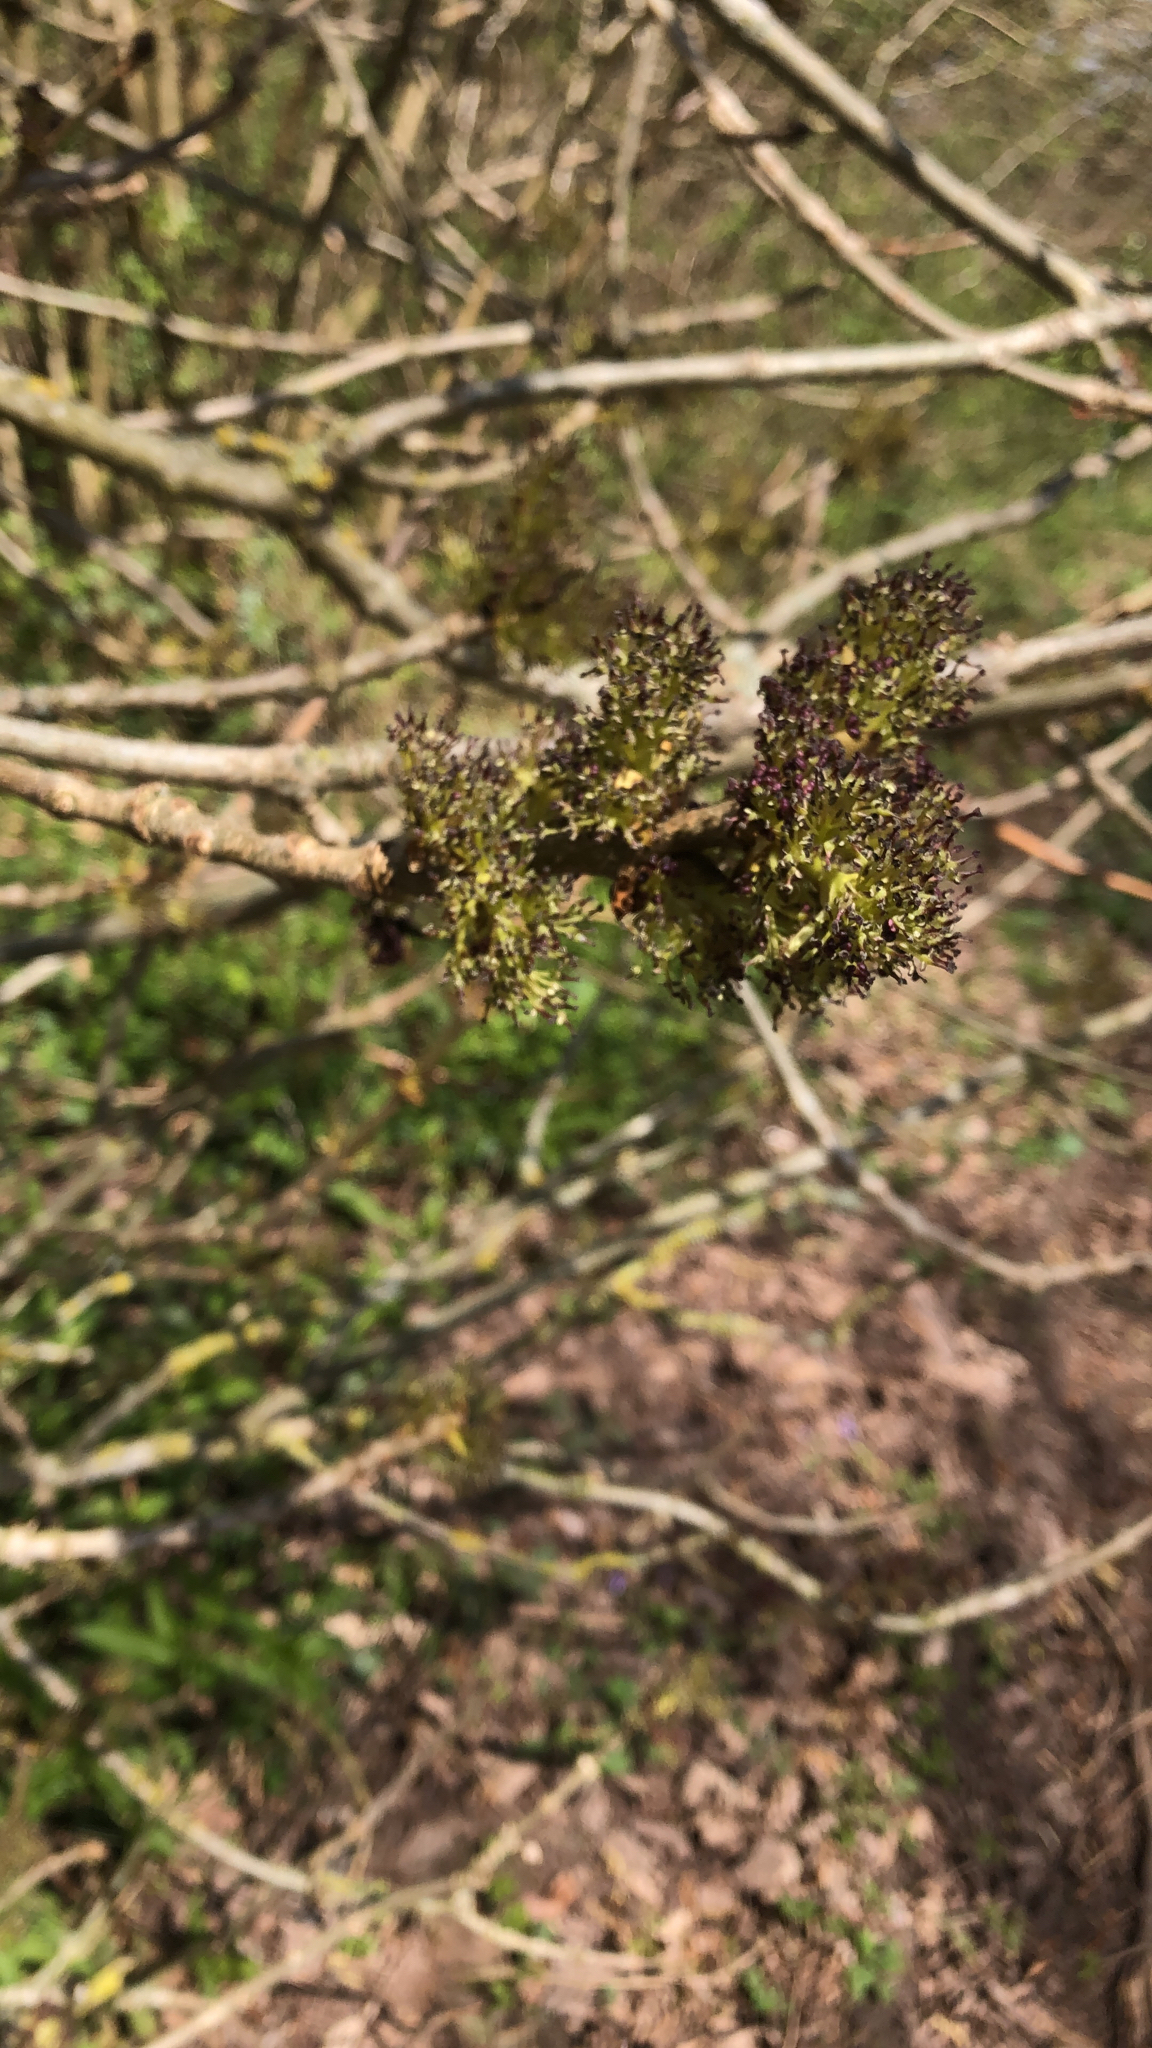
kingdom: Plantae
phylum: Tracheophyta
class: Magnoliopsida
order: Lamiales
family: Oleaceae
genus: Fraxinus
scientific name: Fraxinus excelsior
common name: European ash
